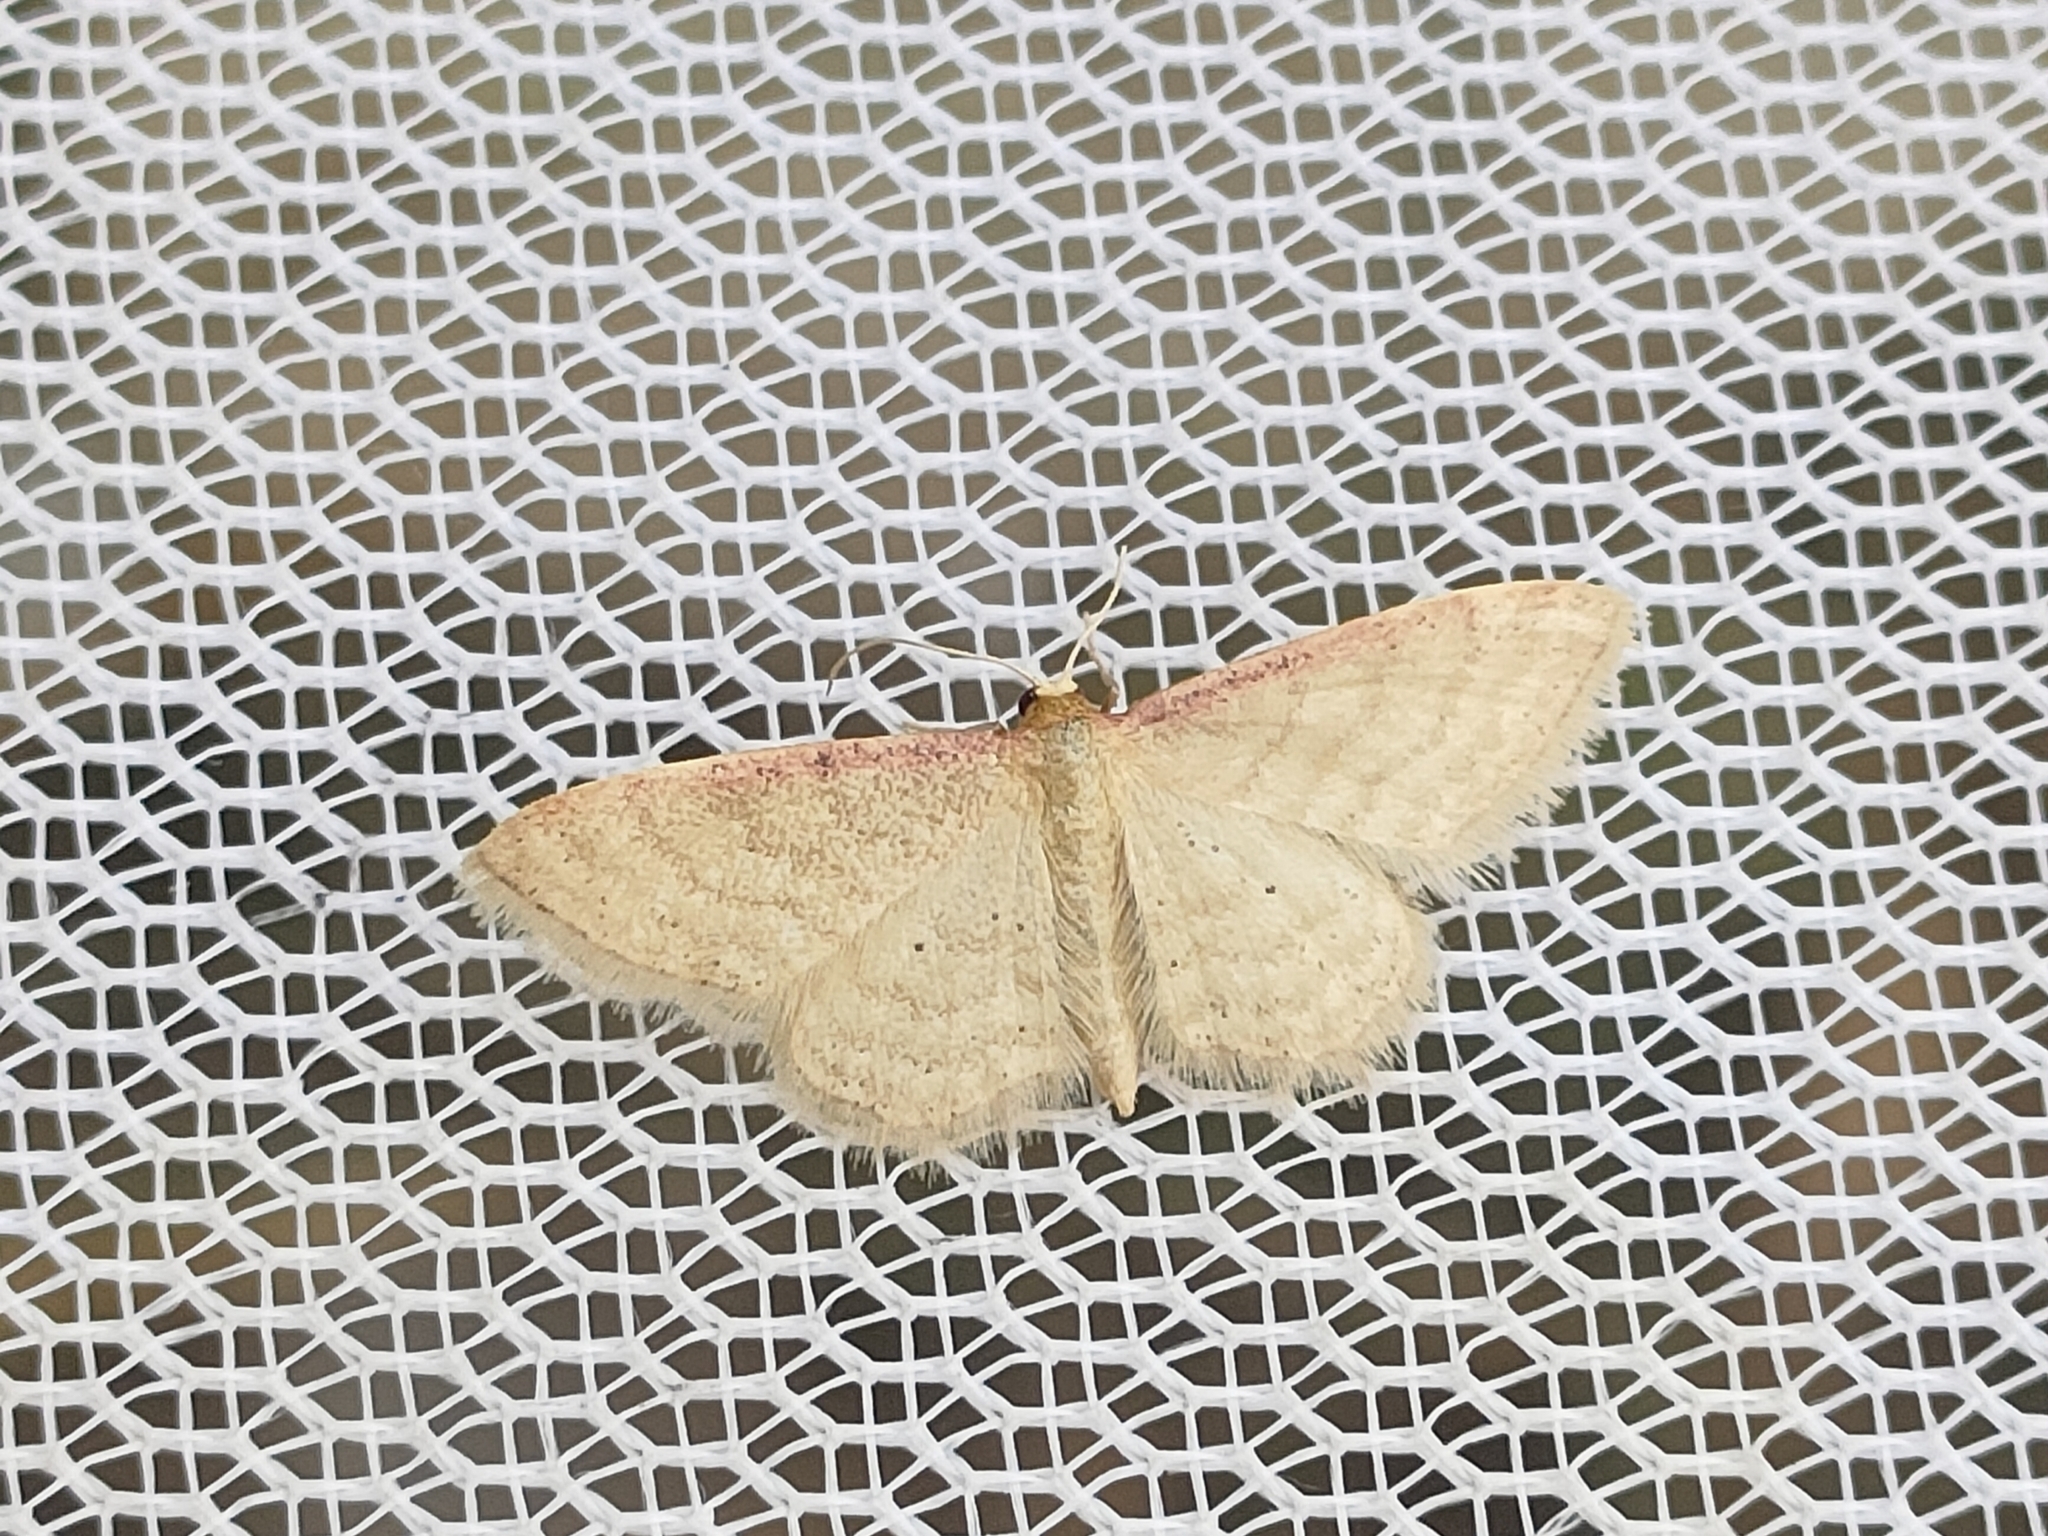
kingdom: Animalia
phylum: Arthropoda
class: Insecta
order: Lepidoptera
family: Geometridae
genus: Idaea
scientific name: Idaea humiliata
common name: Isle of wight wave
